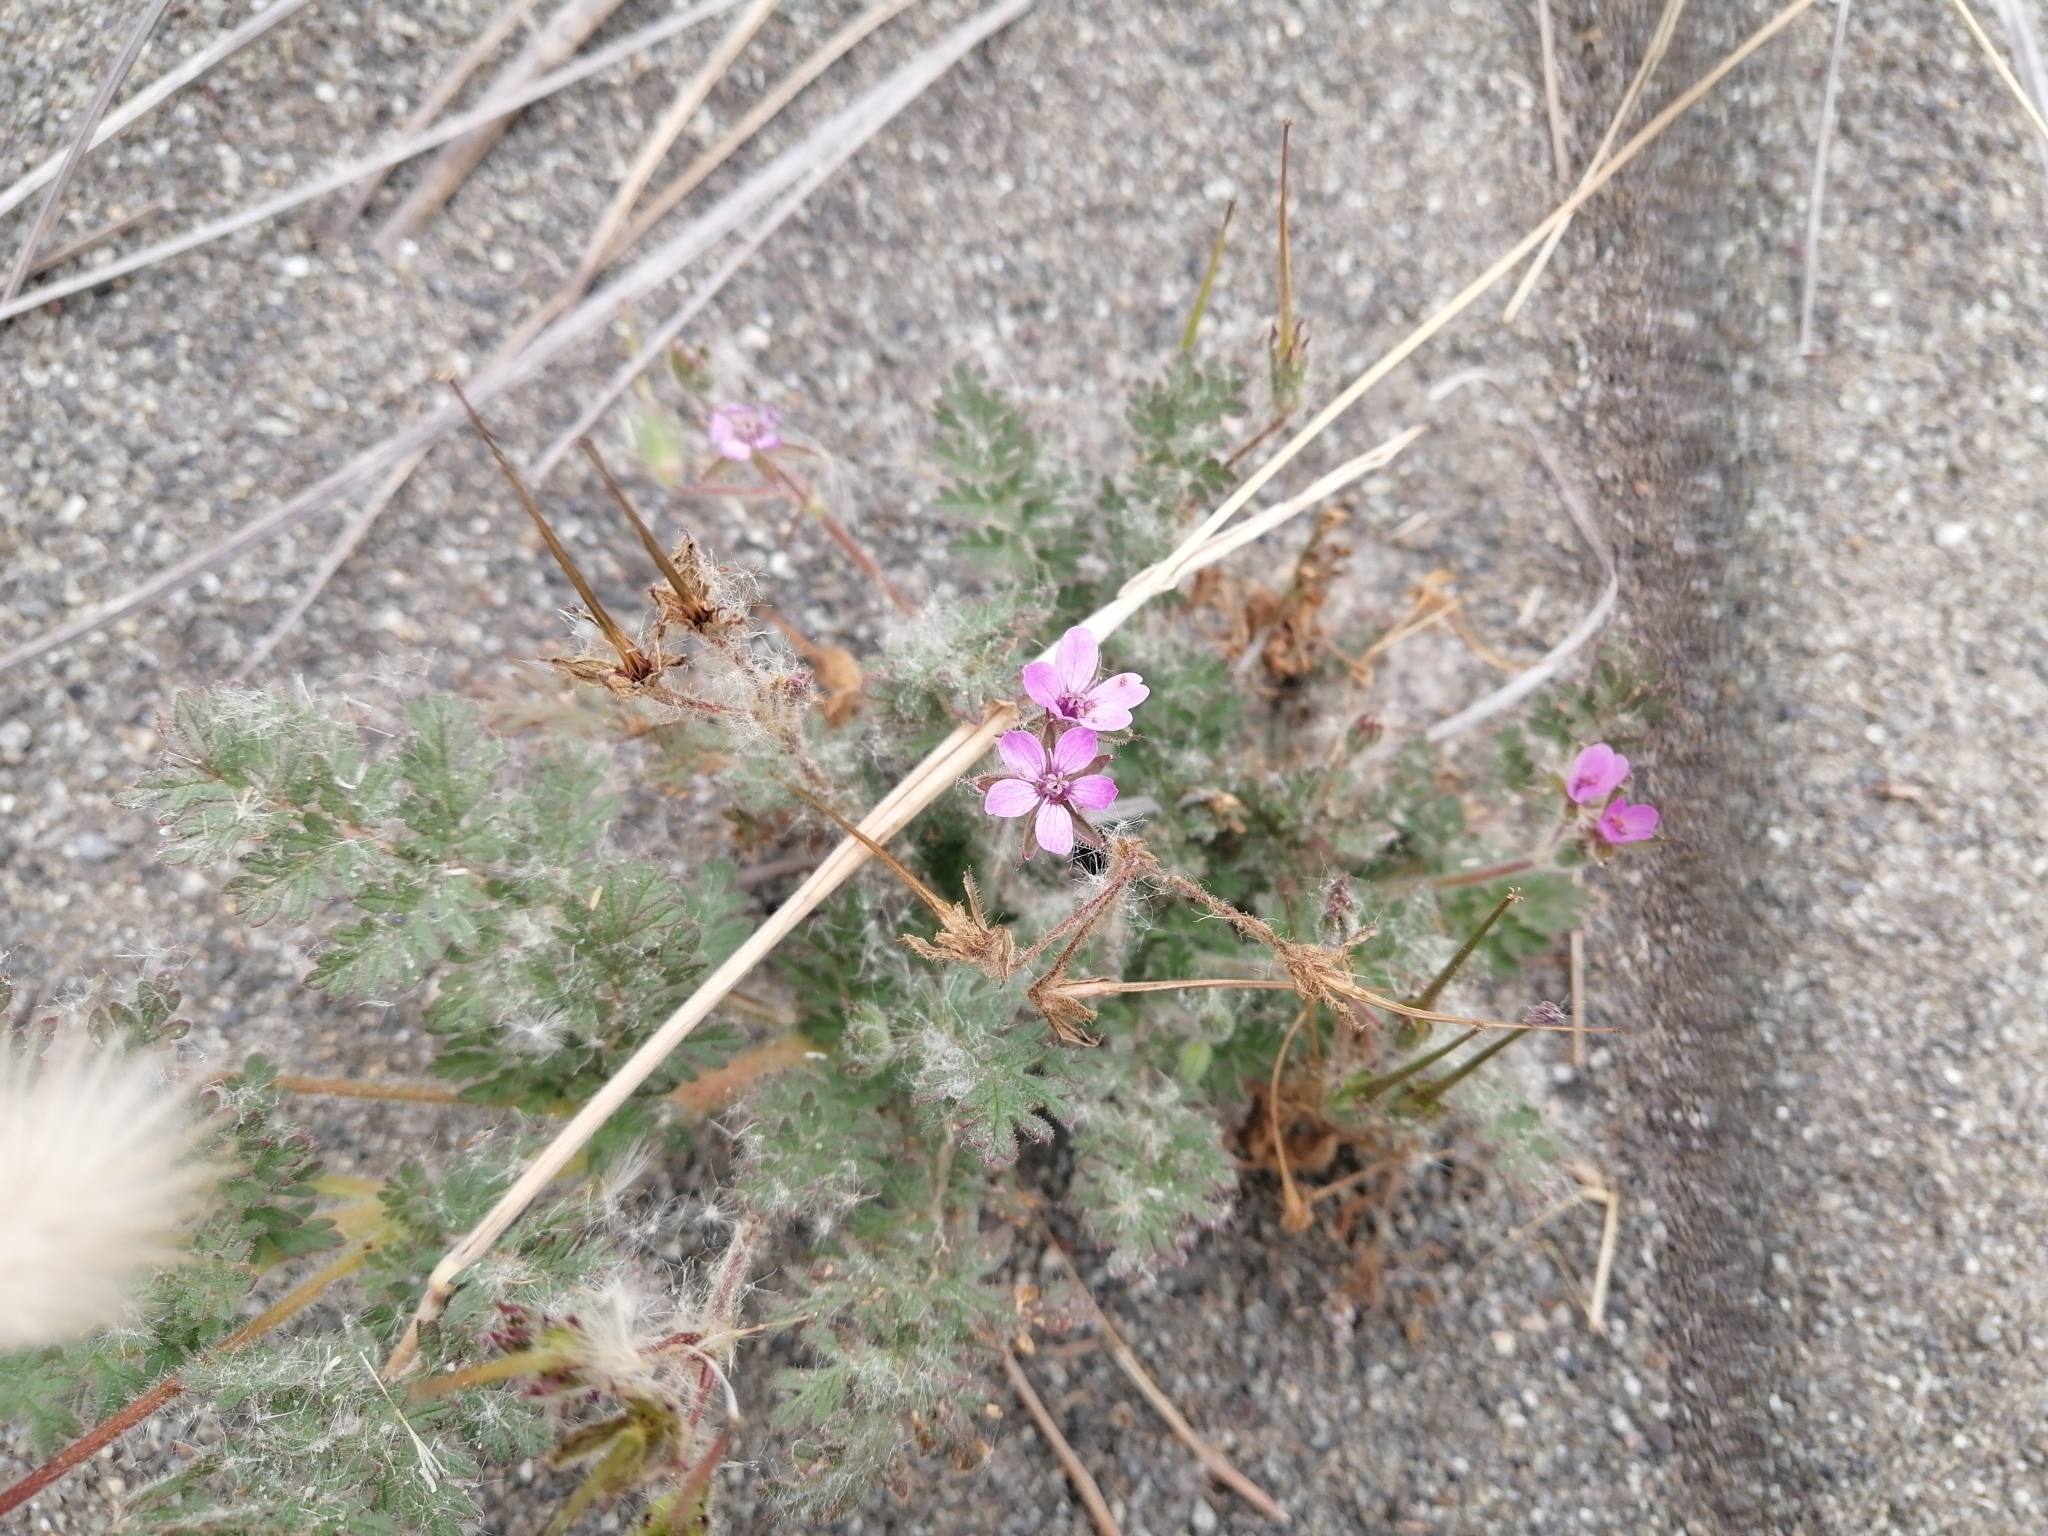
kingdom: Plantae
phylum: Tracheophyta
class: Magnoliopsida
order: Geraniales
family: Geraniaceae
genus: Erodium
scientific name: Erodium cicutarium
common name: Common stork's-bill
